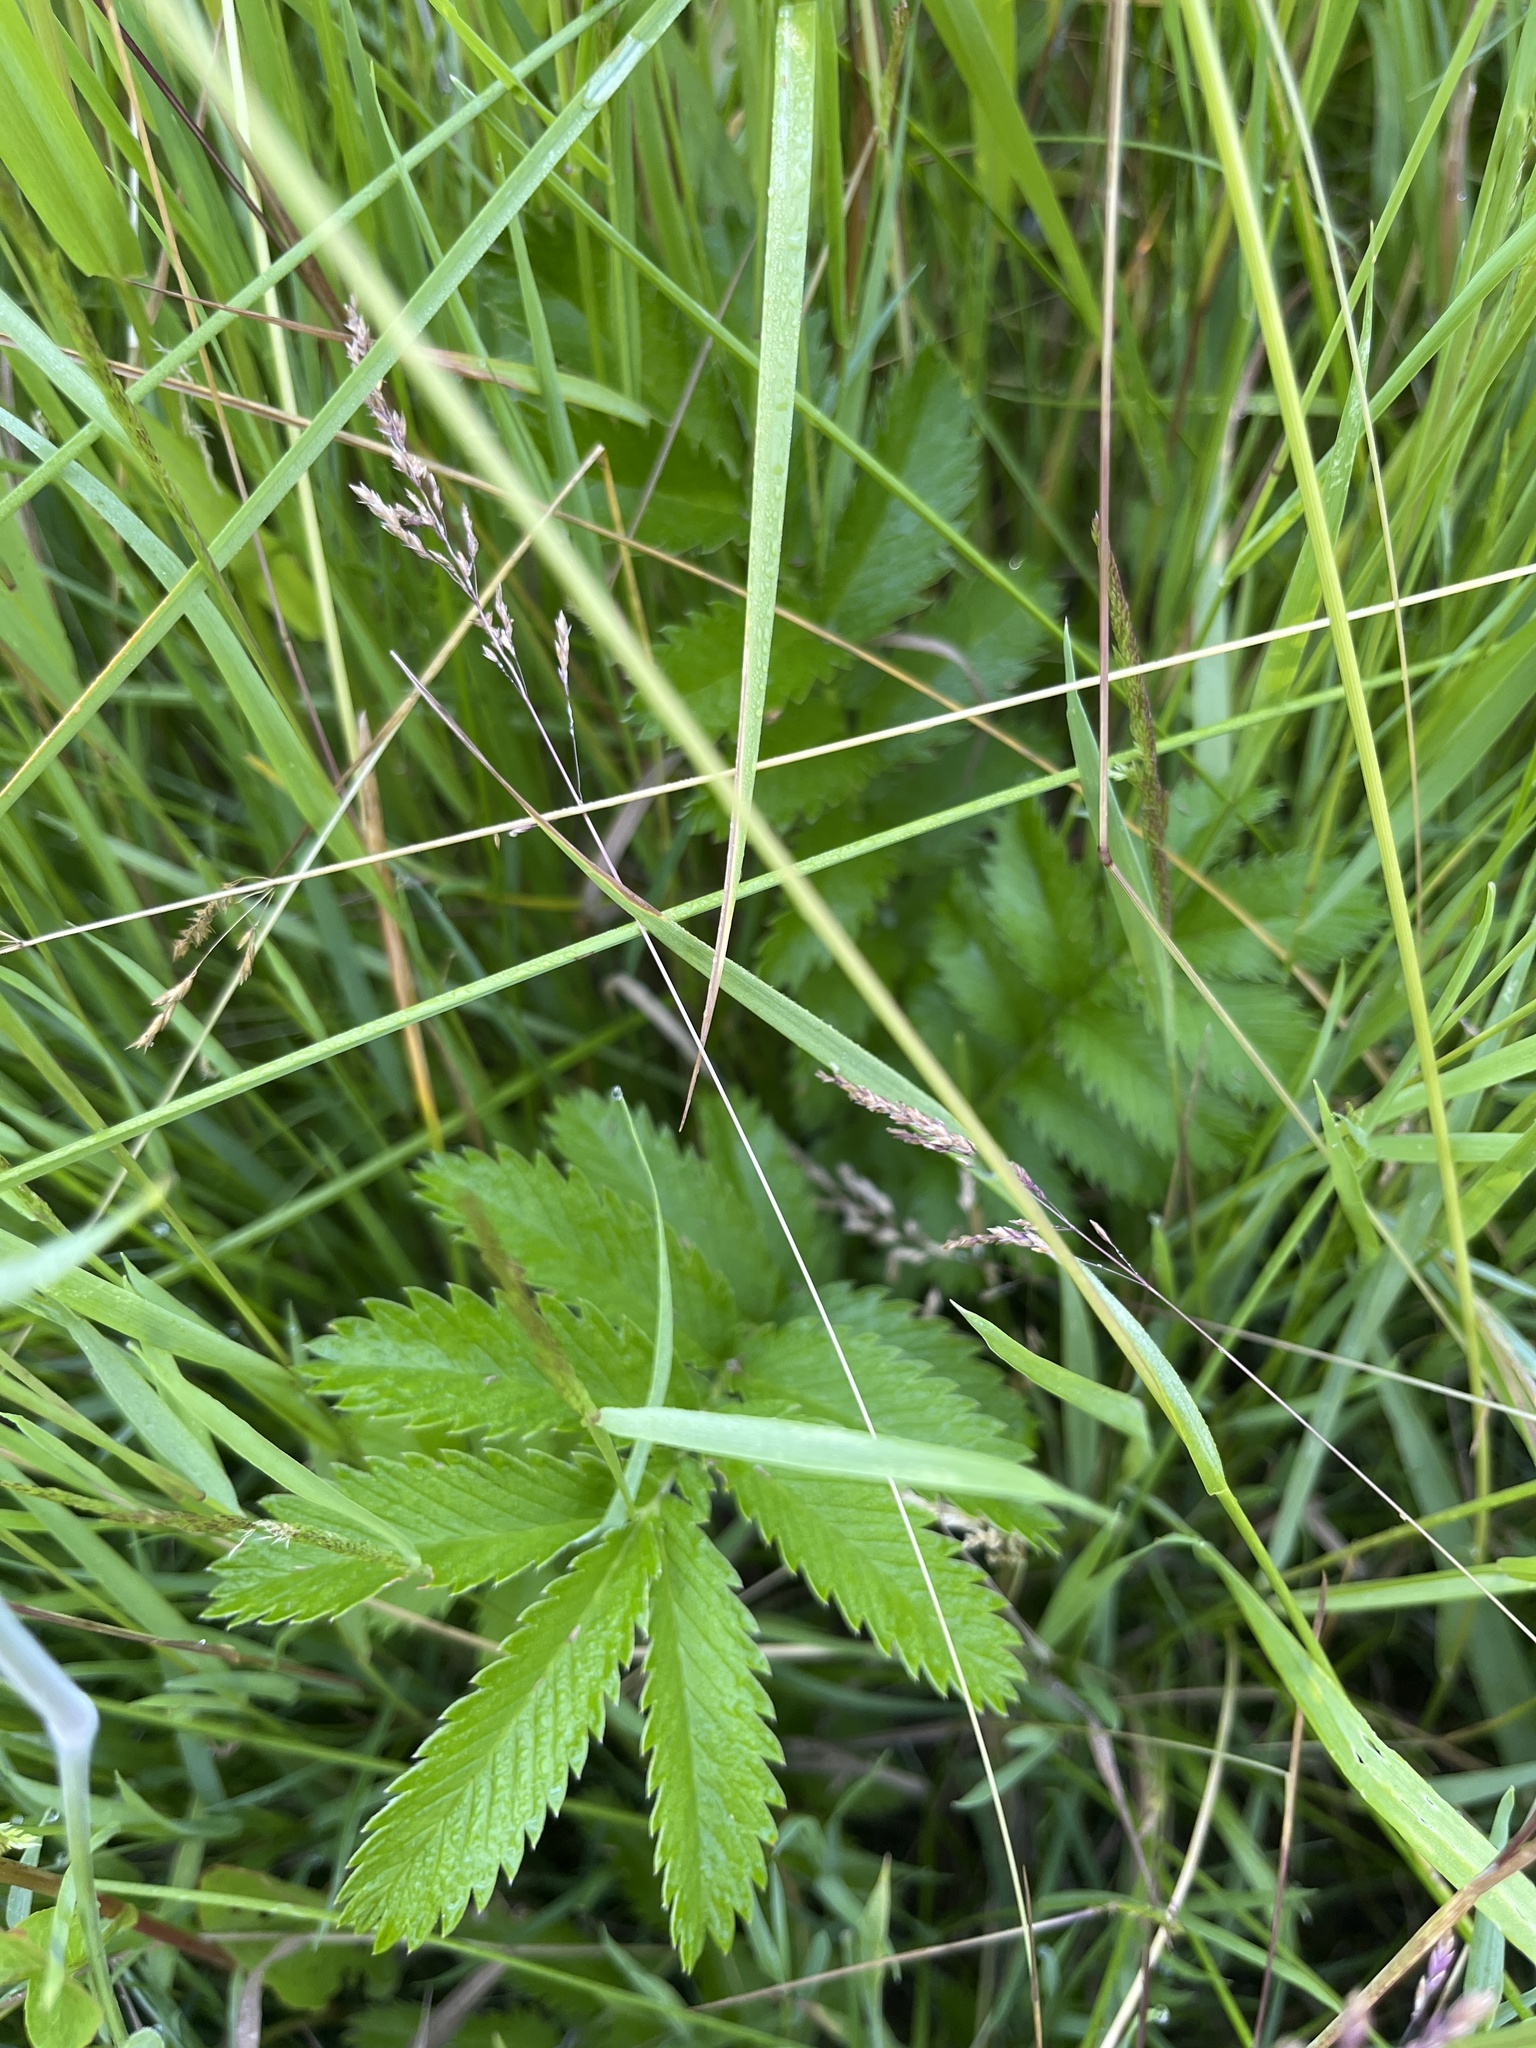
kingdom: Plantae
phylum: Tracheophyta
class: Magnoliopsida
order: Rosales
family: Rosaceae
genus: Argentina
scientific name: Argentina anserina
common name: Common silverweed
